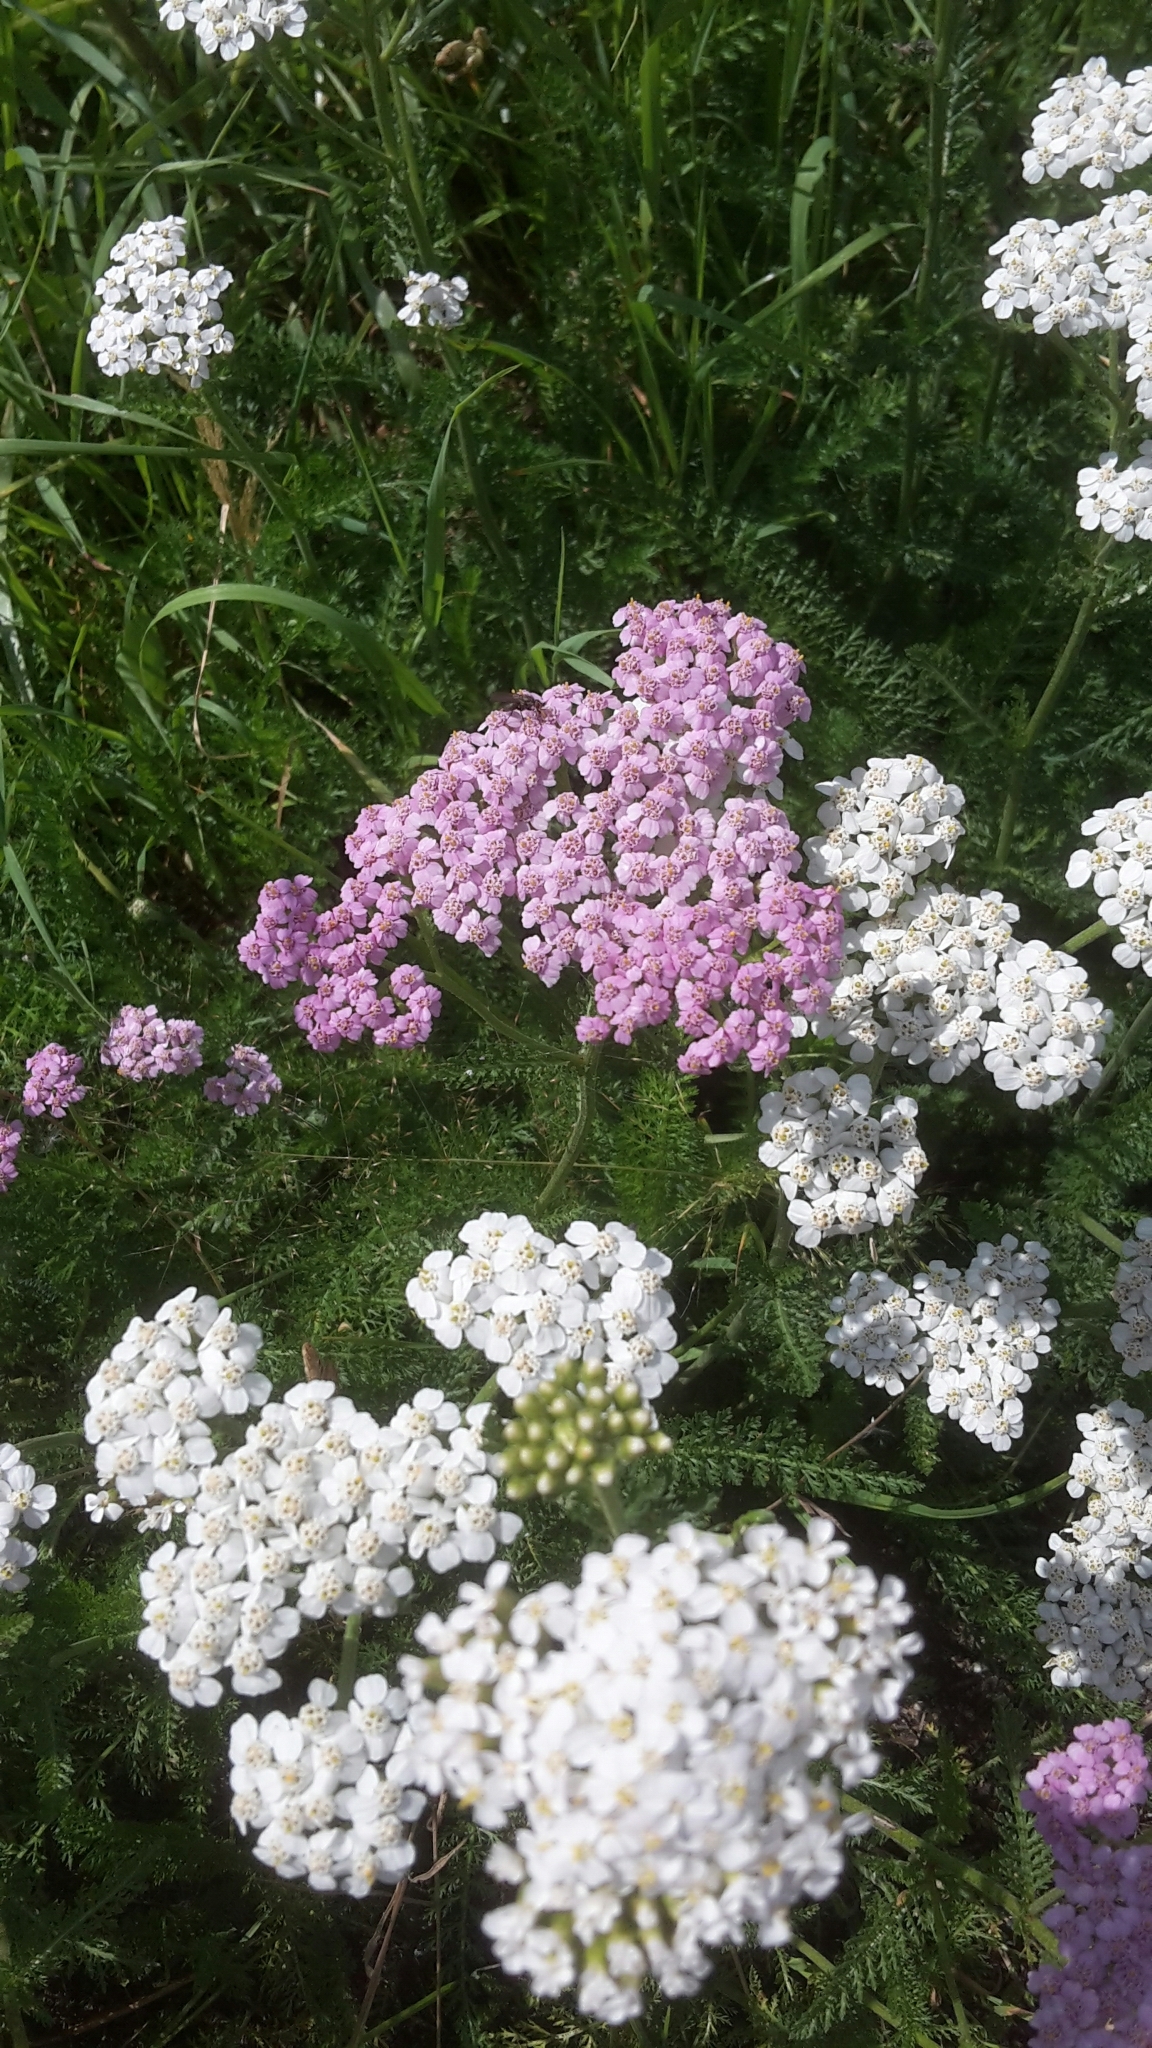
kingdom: Plantae
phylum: Tracheophyta
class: Magnoliopsida
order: Asterales
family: Asteraceae
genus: Achillea
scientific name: Achillea millefolium
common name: Yarrow
